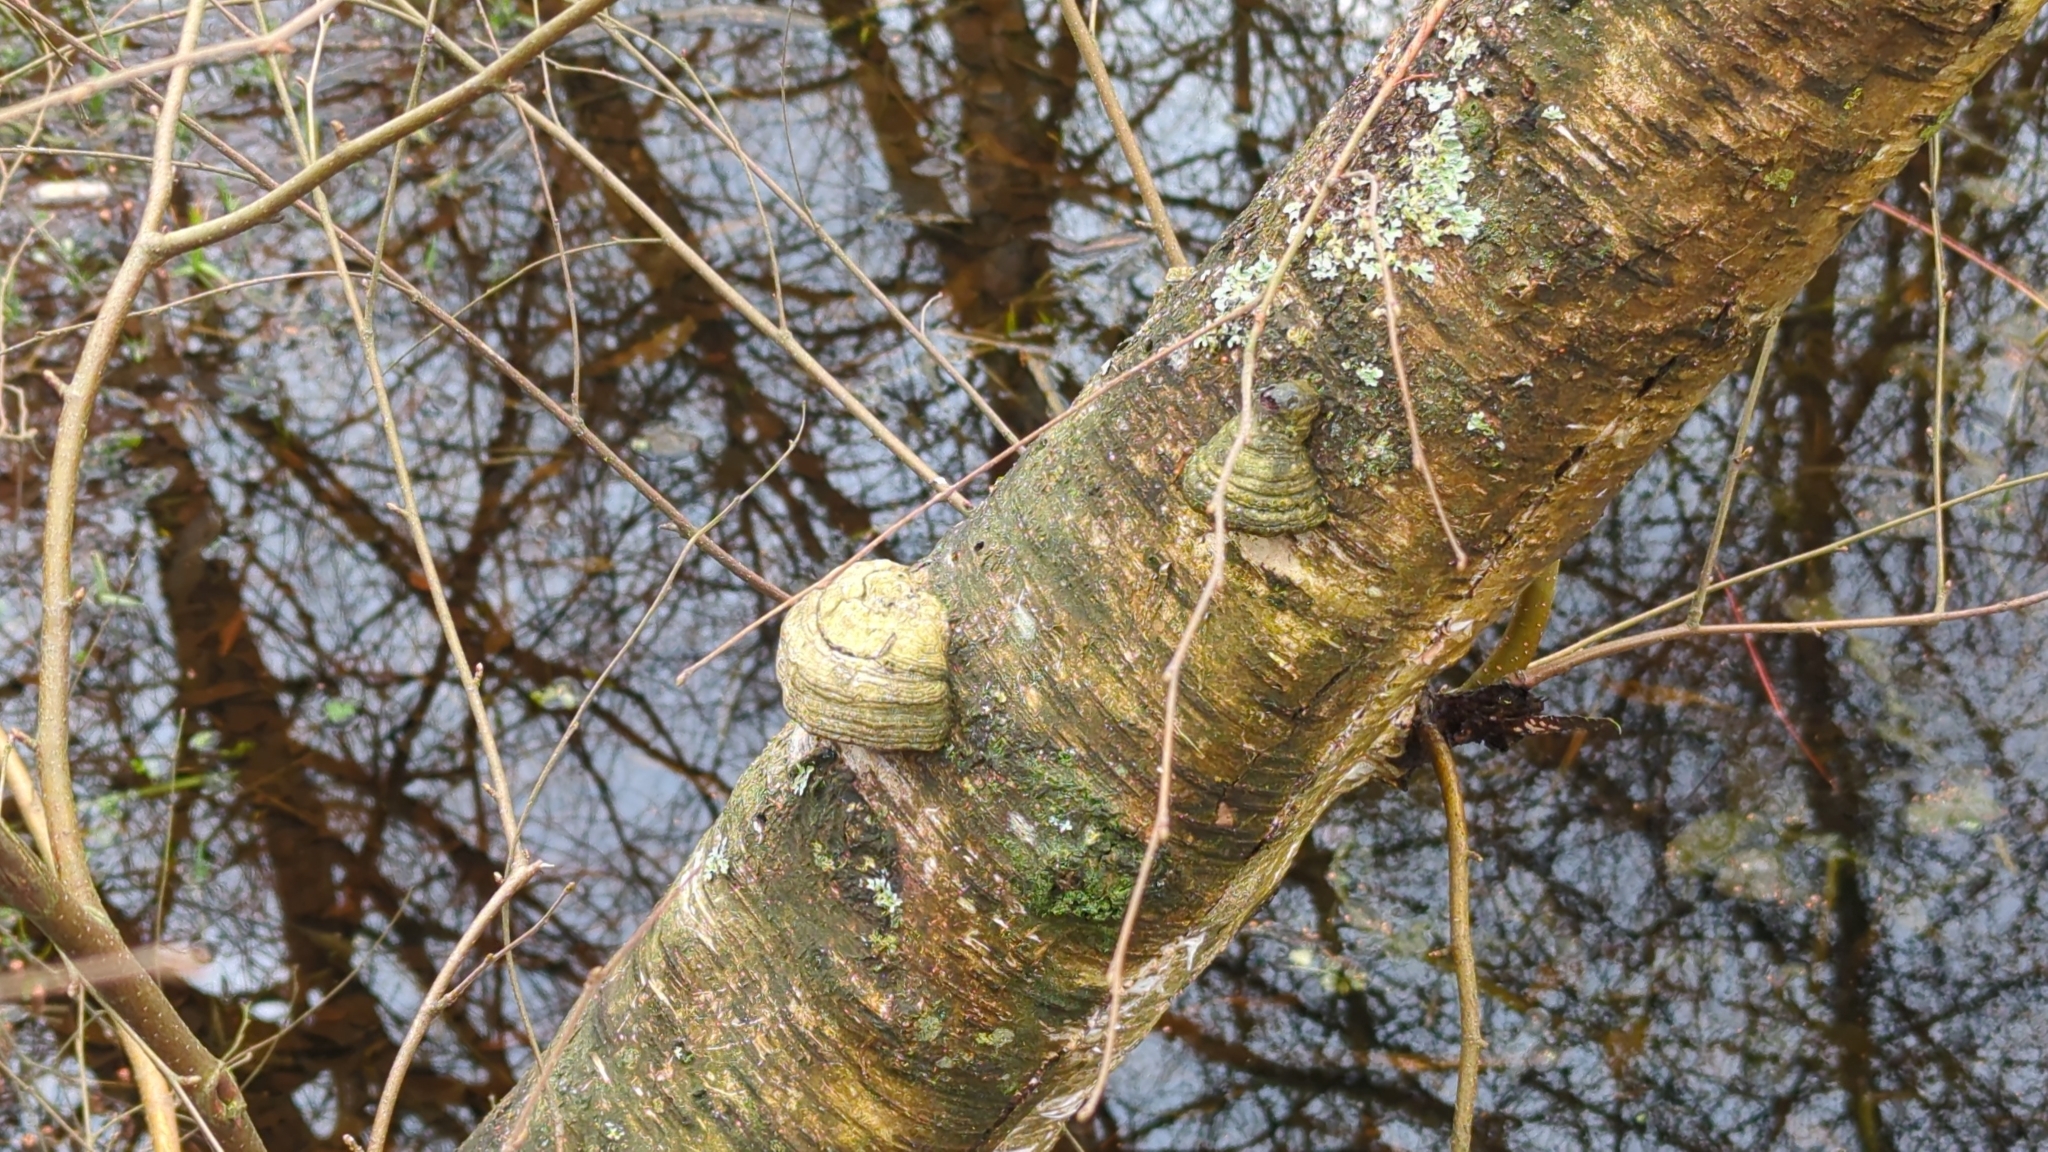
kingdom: Fungi
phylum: Basidiomycota
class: Agaricomycetes
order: Polyporales
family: Polyporaceae
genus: Fomes
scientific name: Fomes fomentarius
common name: Hoof fungus
